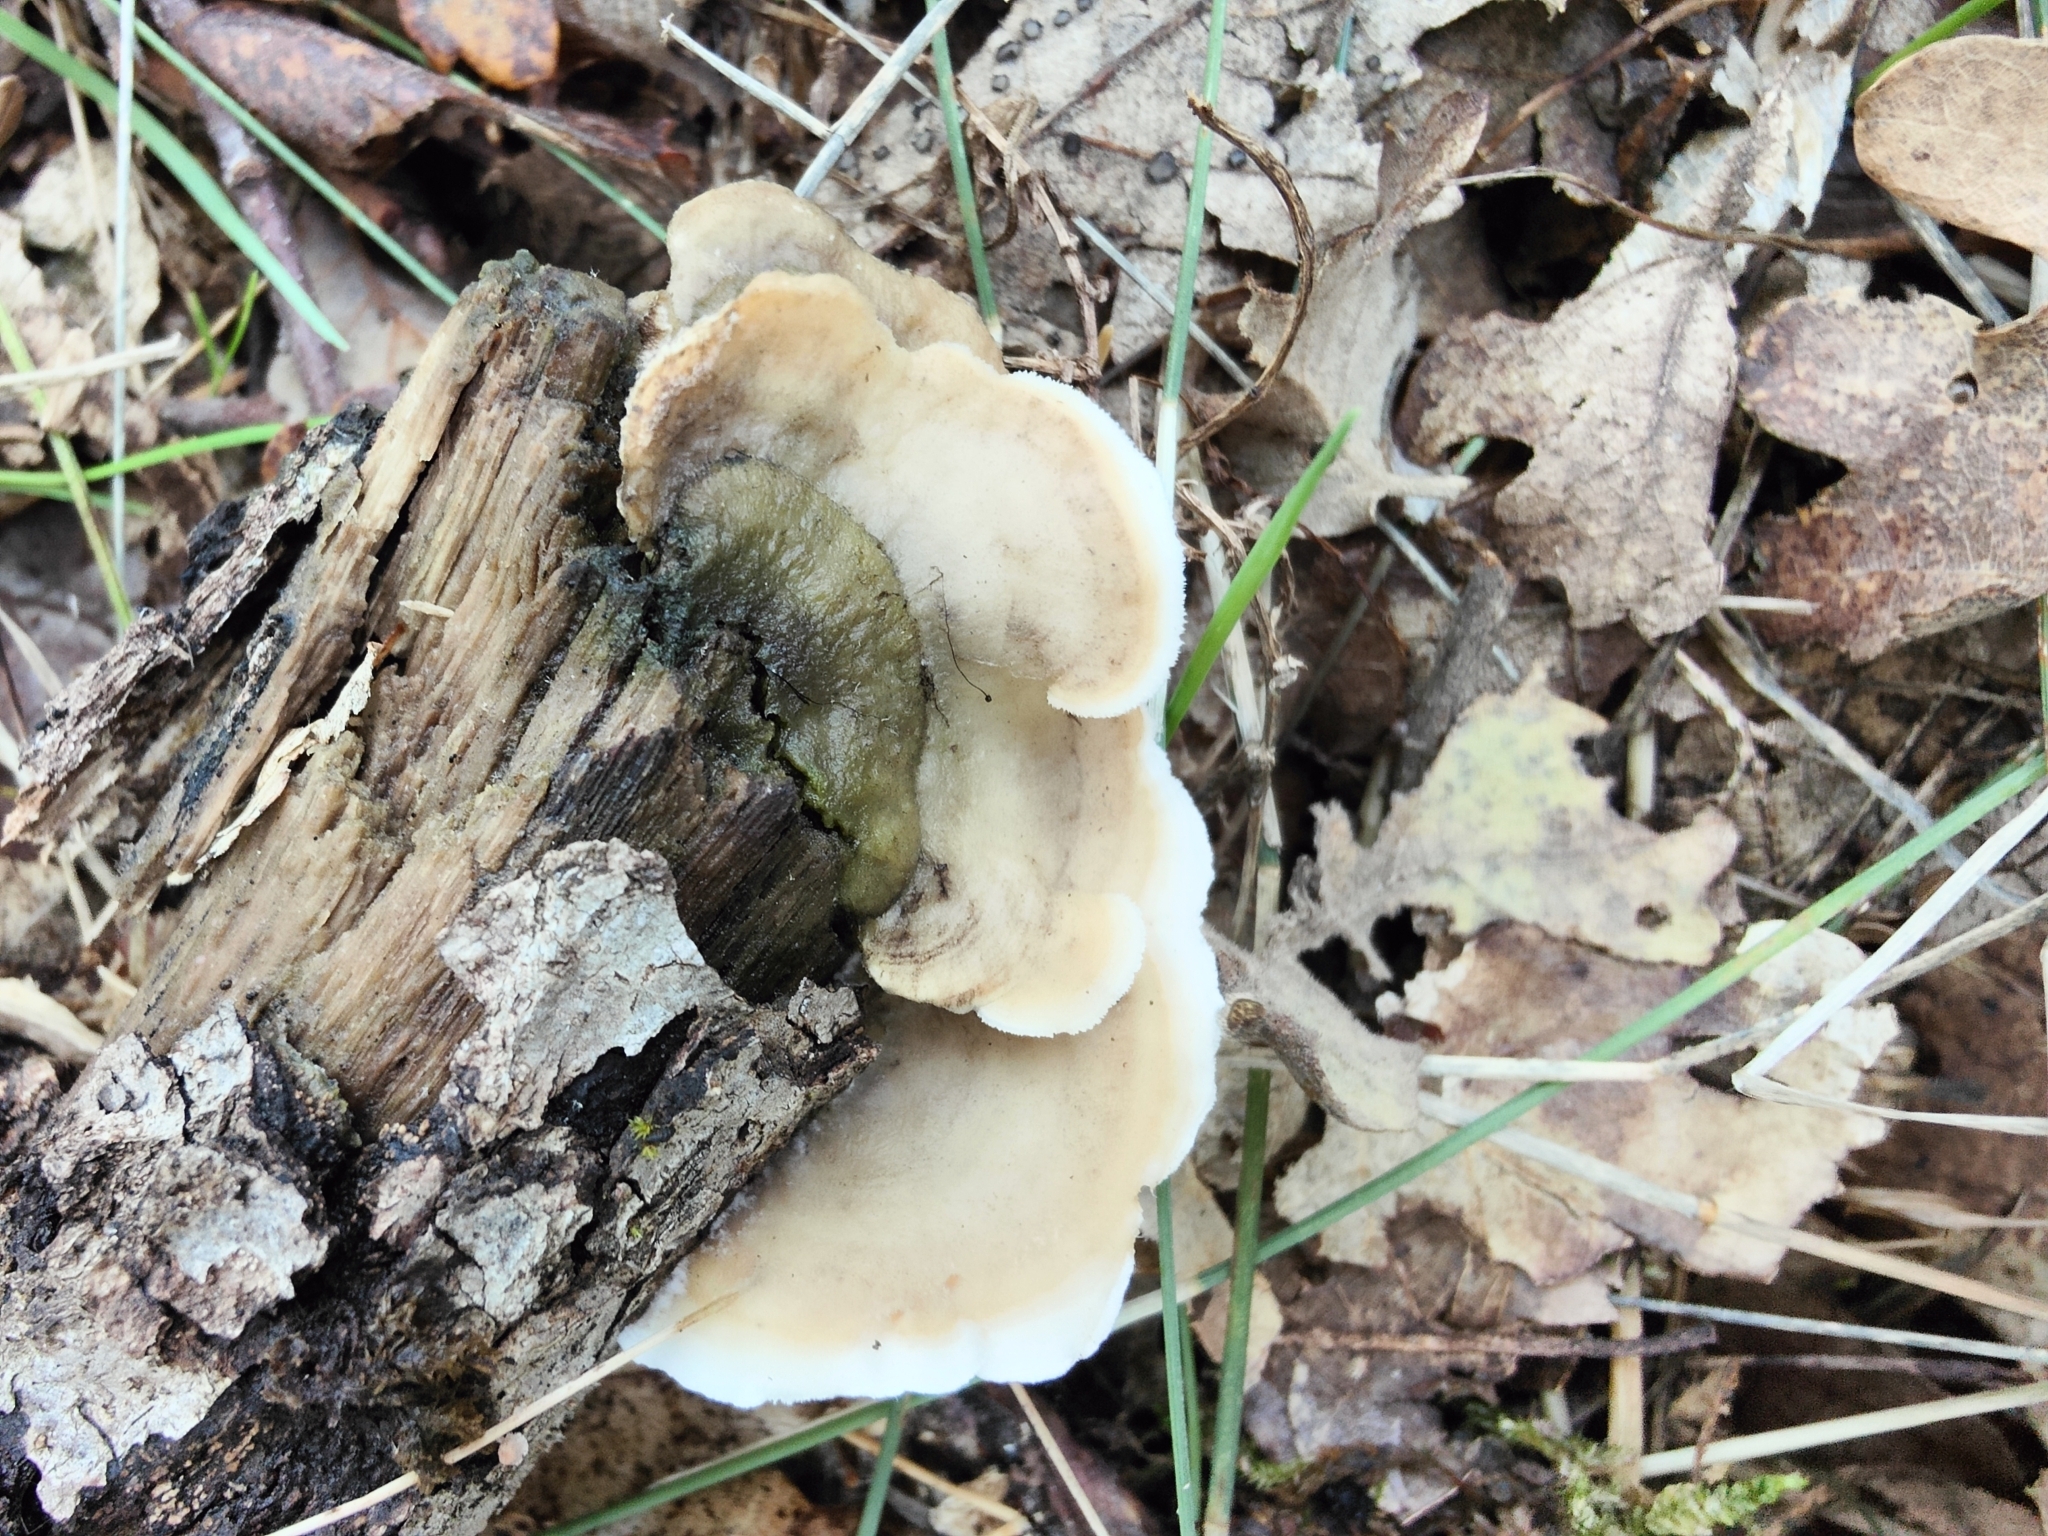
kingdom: Fungi
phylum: Basidiomycota
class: Agaricomycetes
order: Polyporales
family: Irpicaceae
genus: Vitreoporus
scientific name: Vitreoporus dichrous
